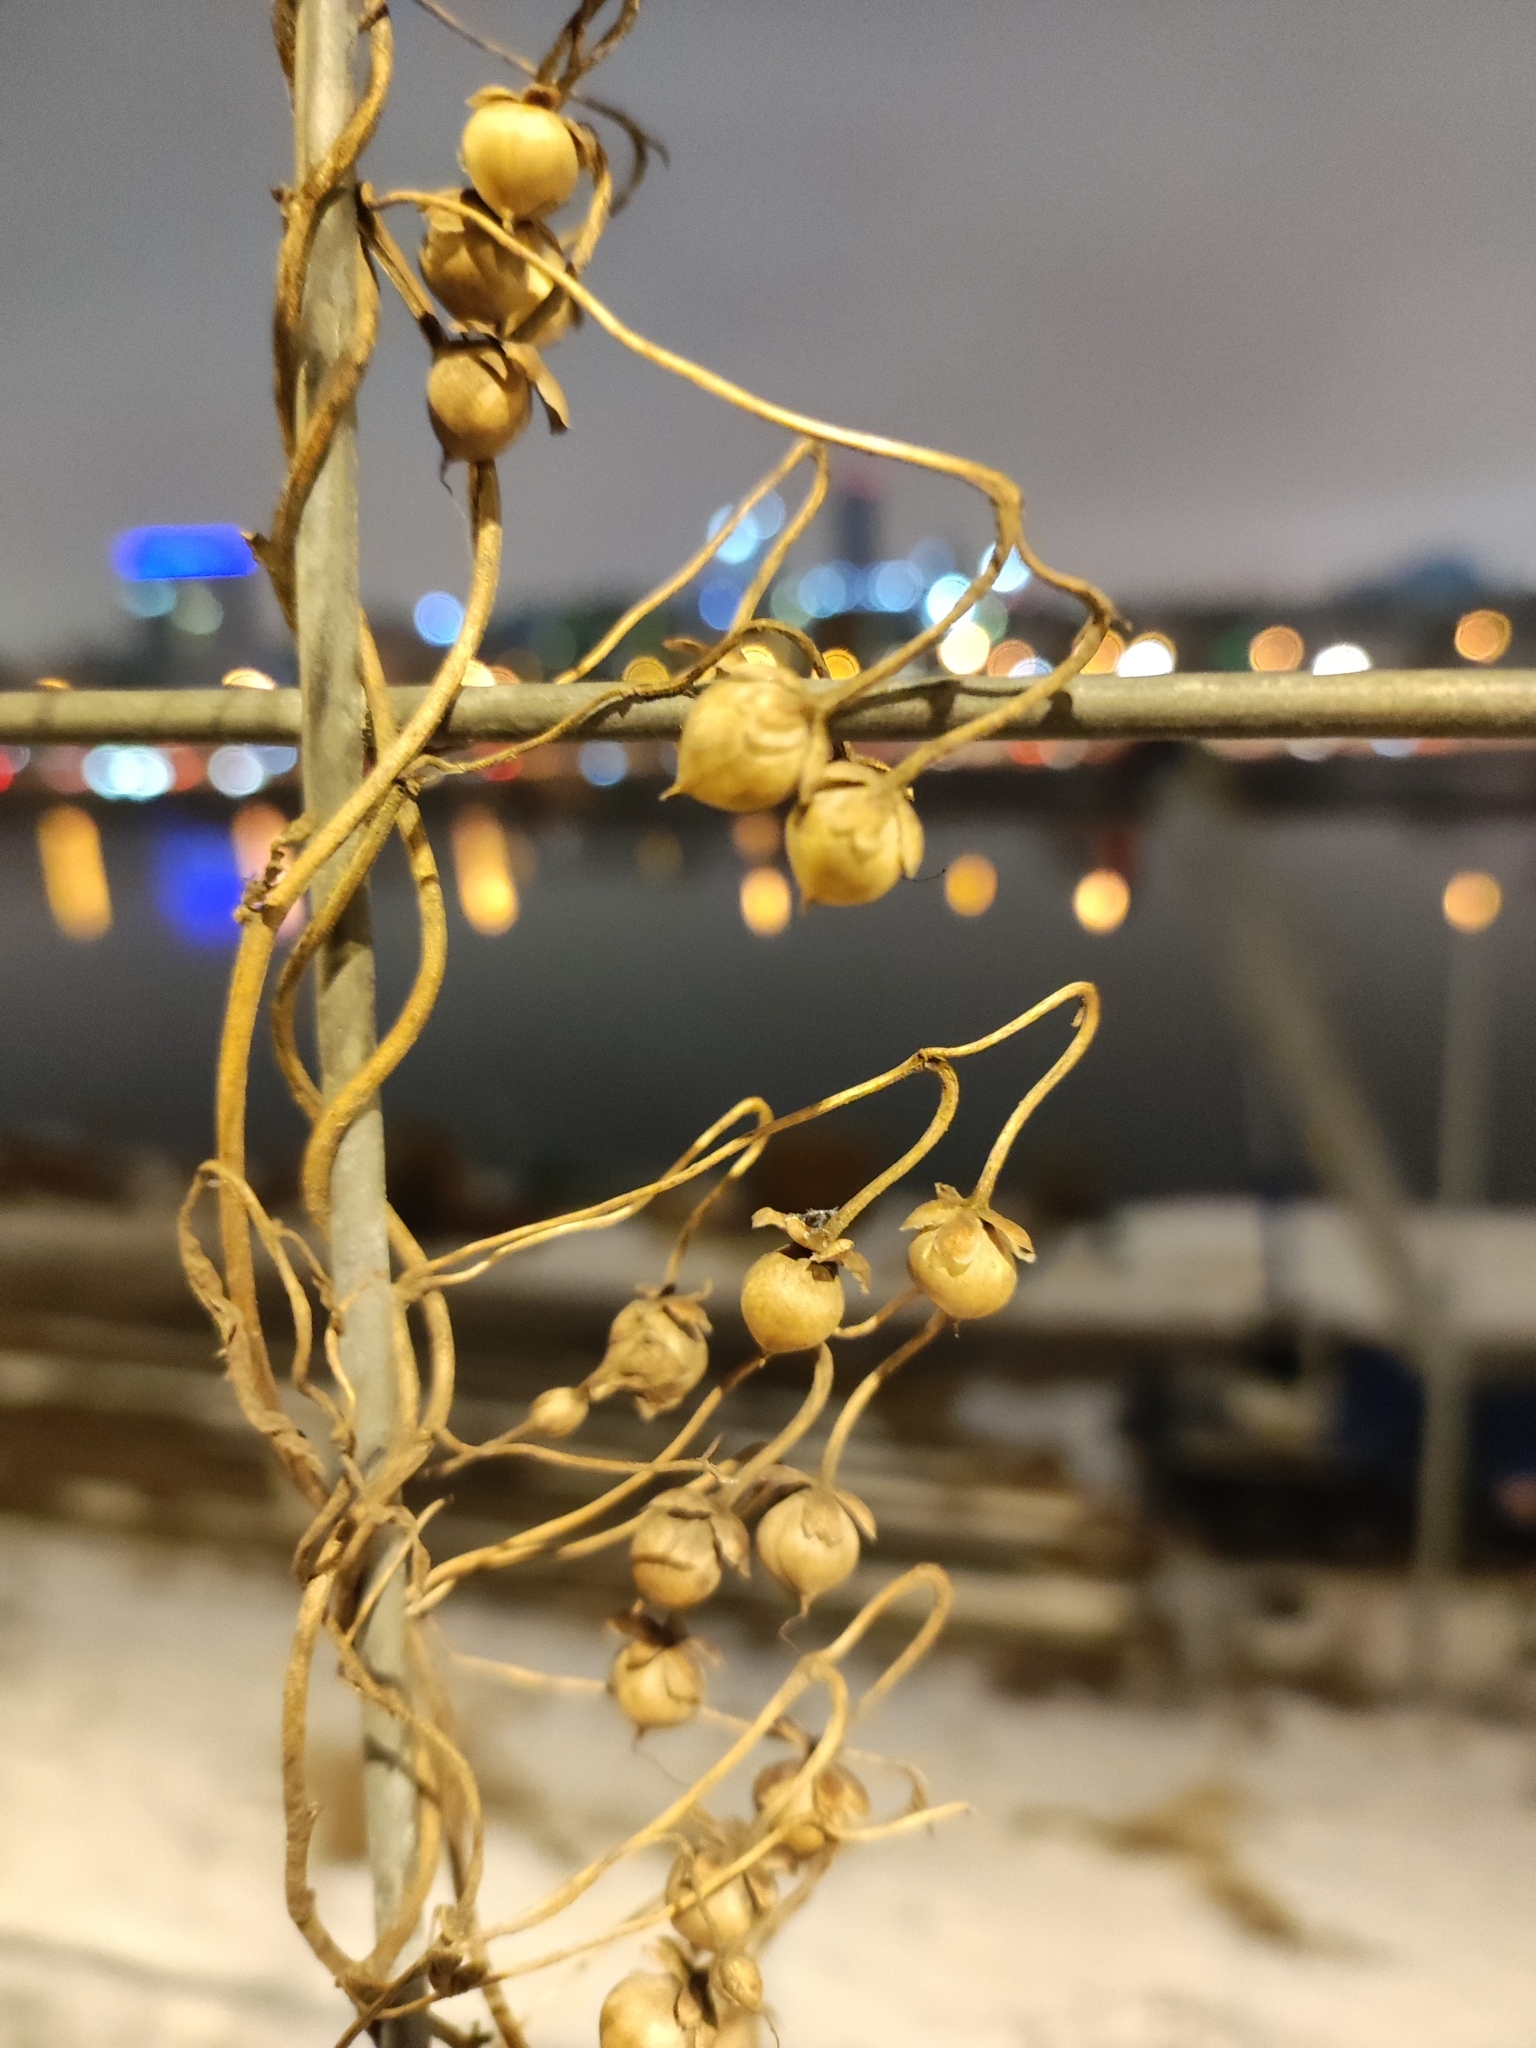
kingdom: Plantae
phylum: Tracheophyta
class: Magnoliopsida
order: Solanales
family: Convolvulaceae
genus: Convolvulus
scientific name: Convolvulus arvensis
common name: Field bindweed
